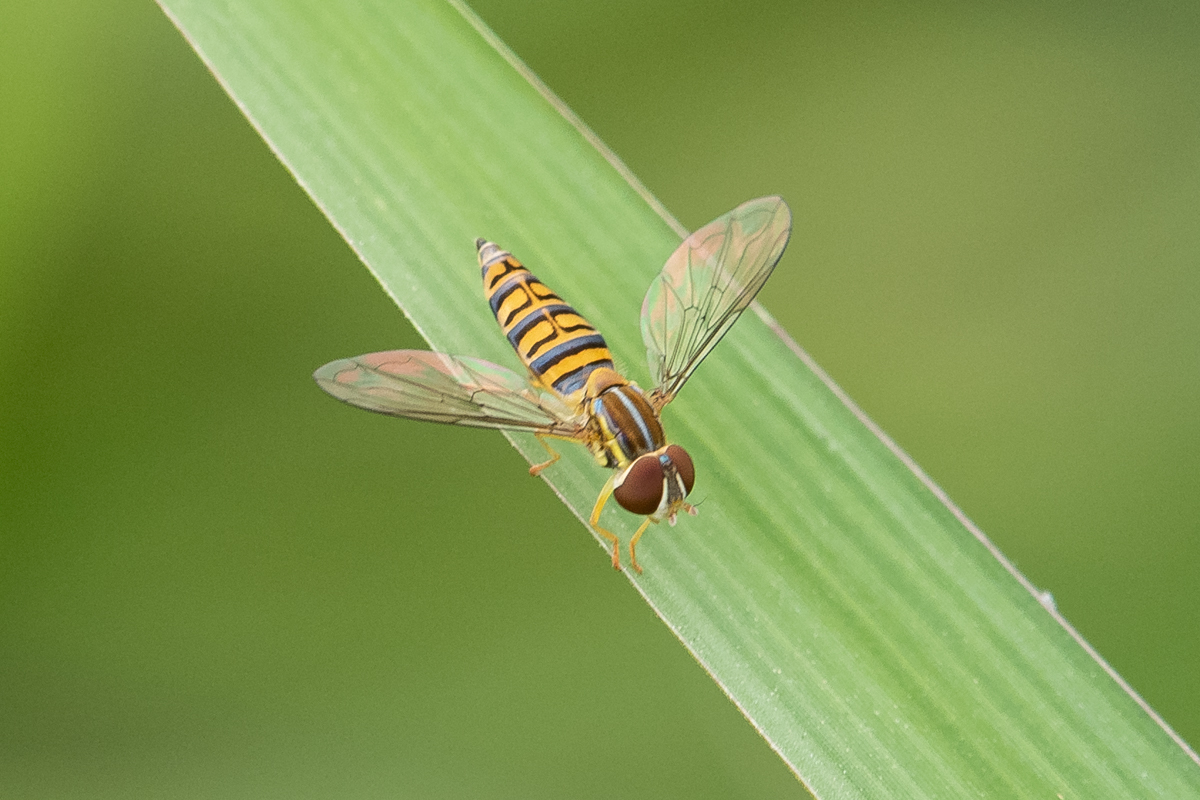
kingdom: Animalia
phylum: Arthropoda
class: Insecta
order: Diptera
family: Syrphidae
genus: Toxomerus
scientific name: Toxomerus politus
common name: Maize calligrapher
